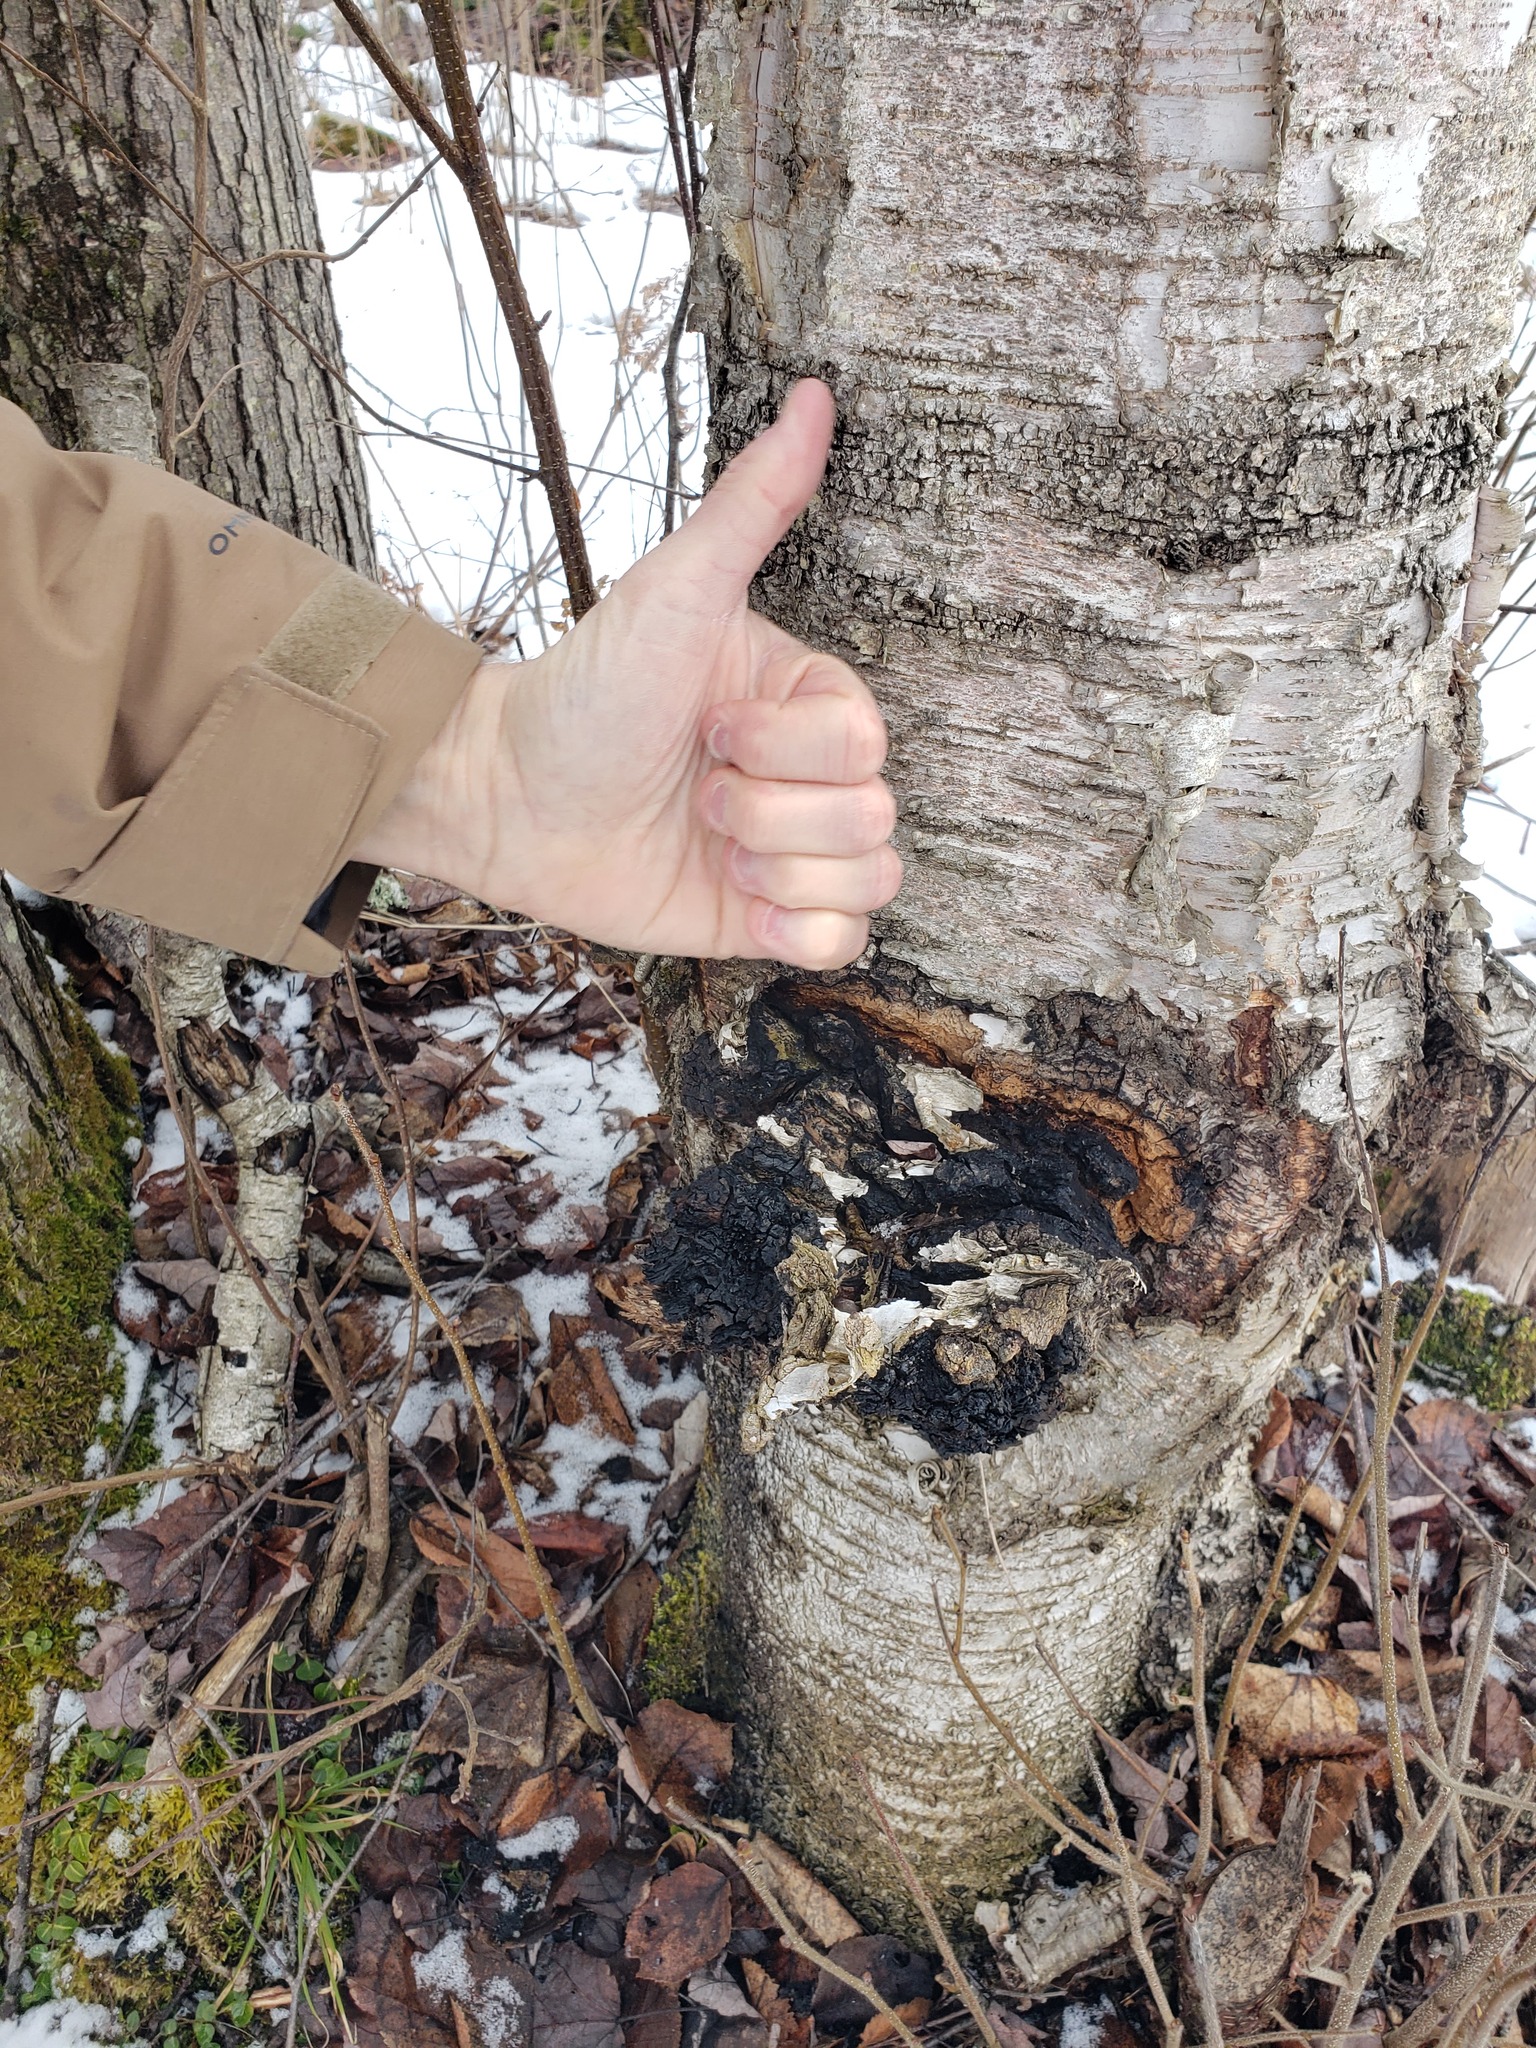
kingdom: Fungi
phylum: Basidiomycota
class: Agaricomycetes
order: Hymenochaetales
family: Hymenochaetaceae
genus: Inonotus
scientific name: Inonotus obliquus
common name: Chaga
